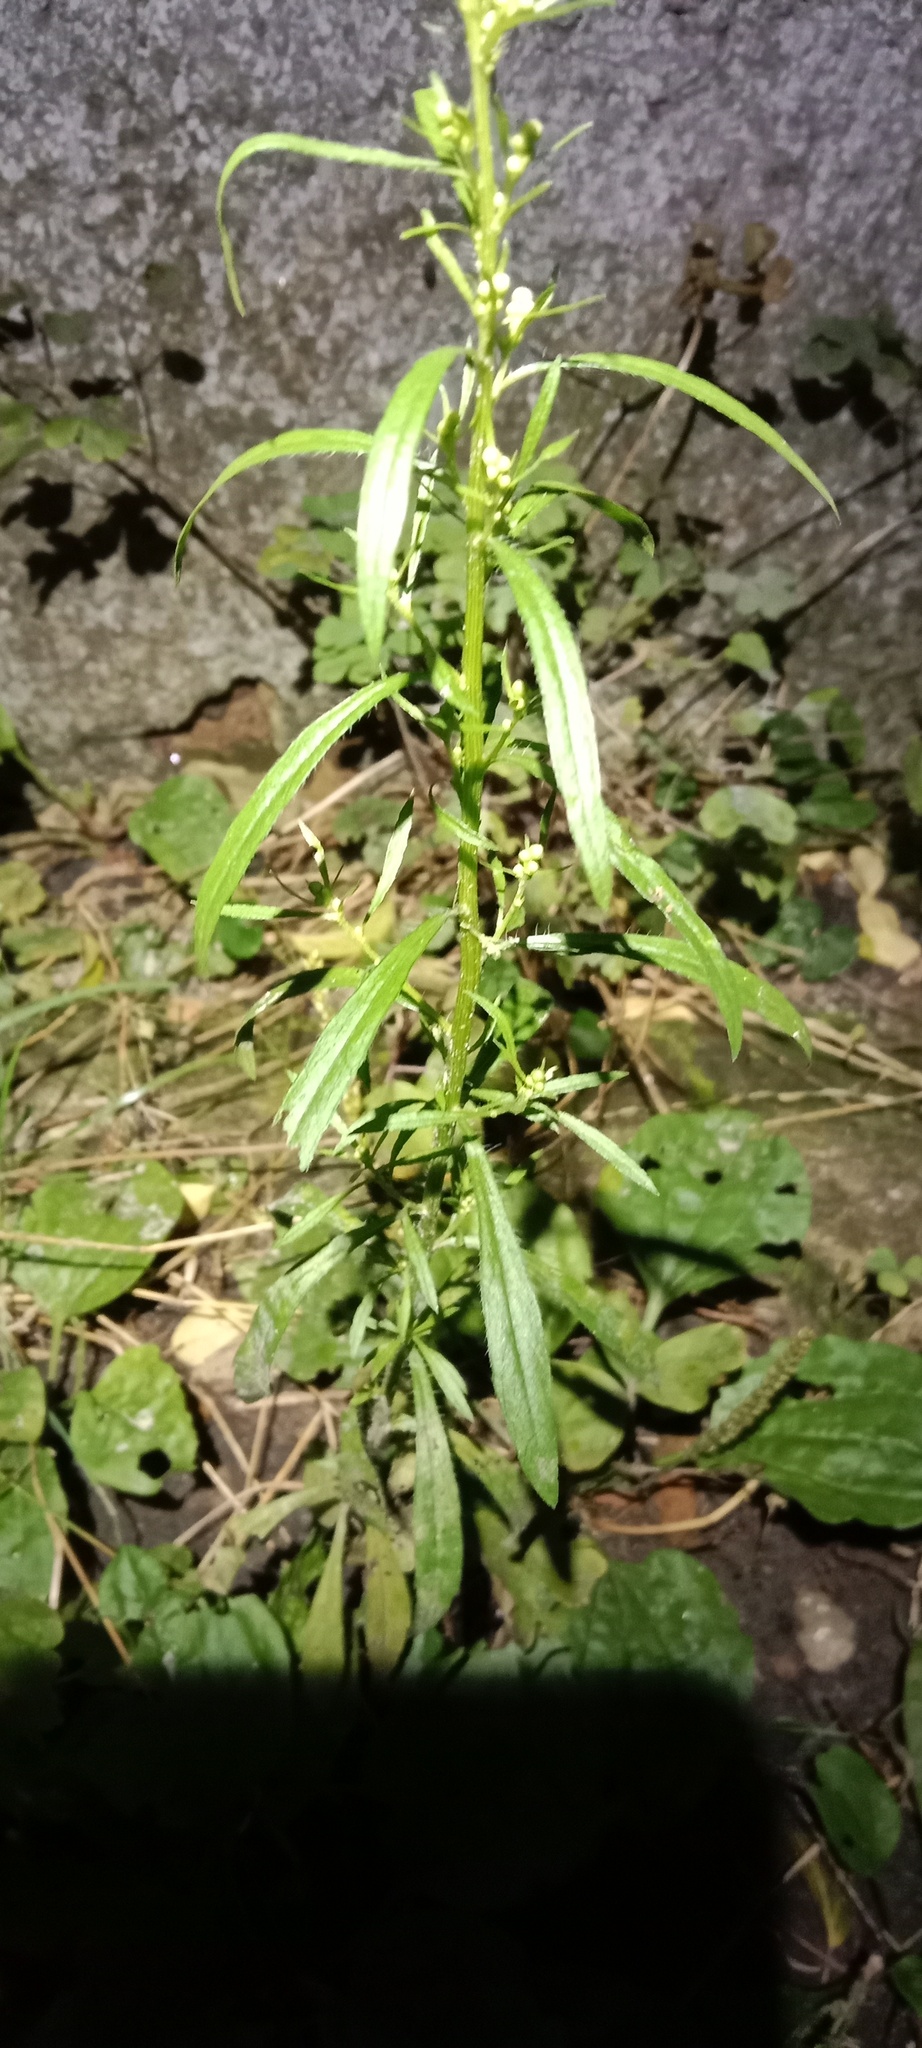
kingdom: Plantae
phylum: Tracheophyta
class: Magnoliopsida
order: Asterales
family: Asteraceae
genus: Erigeron
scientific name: Erigeron canadensis
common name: Canadian fleabane
